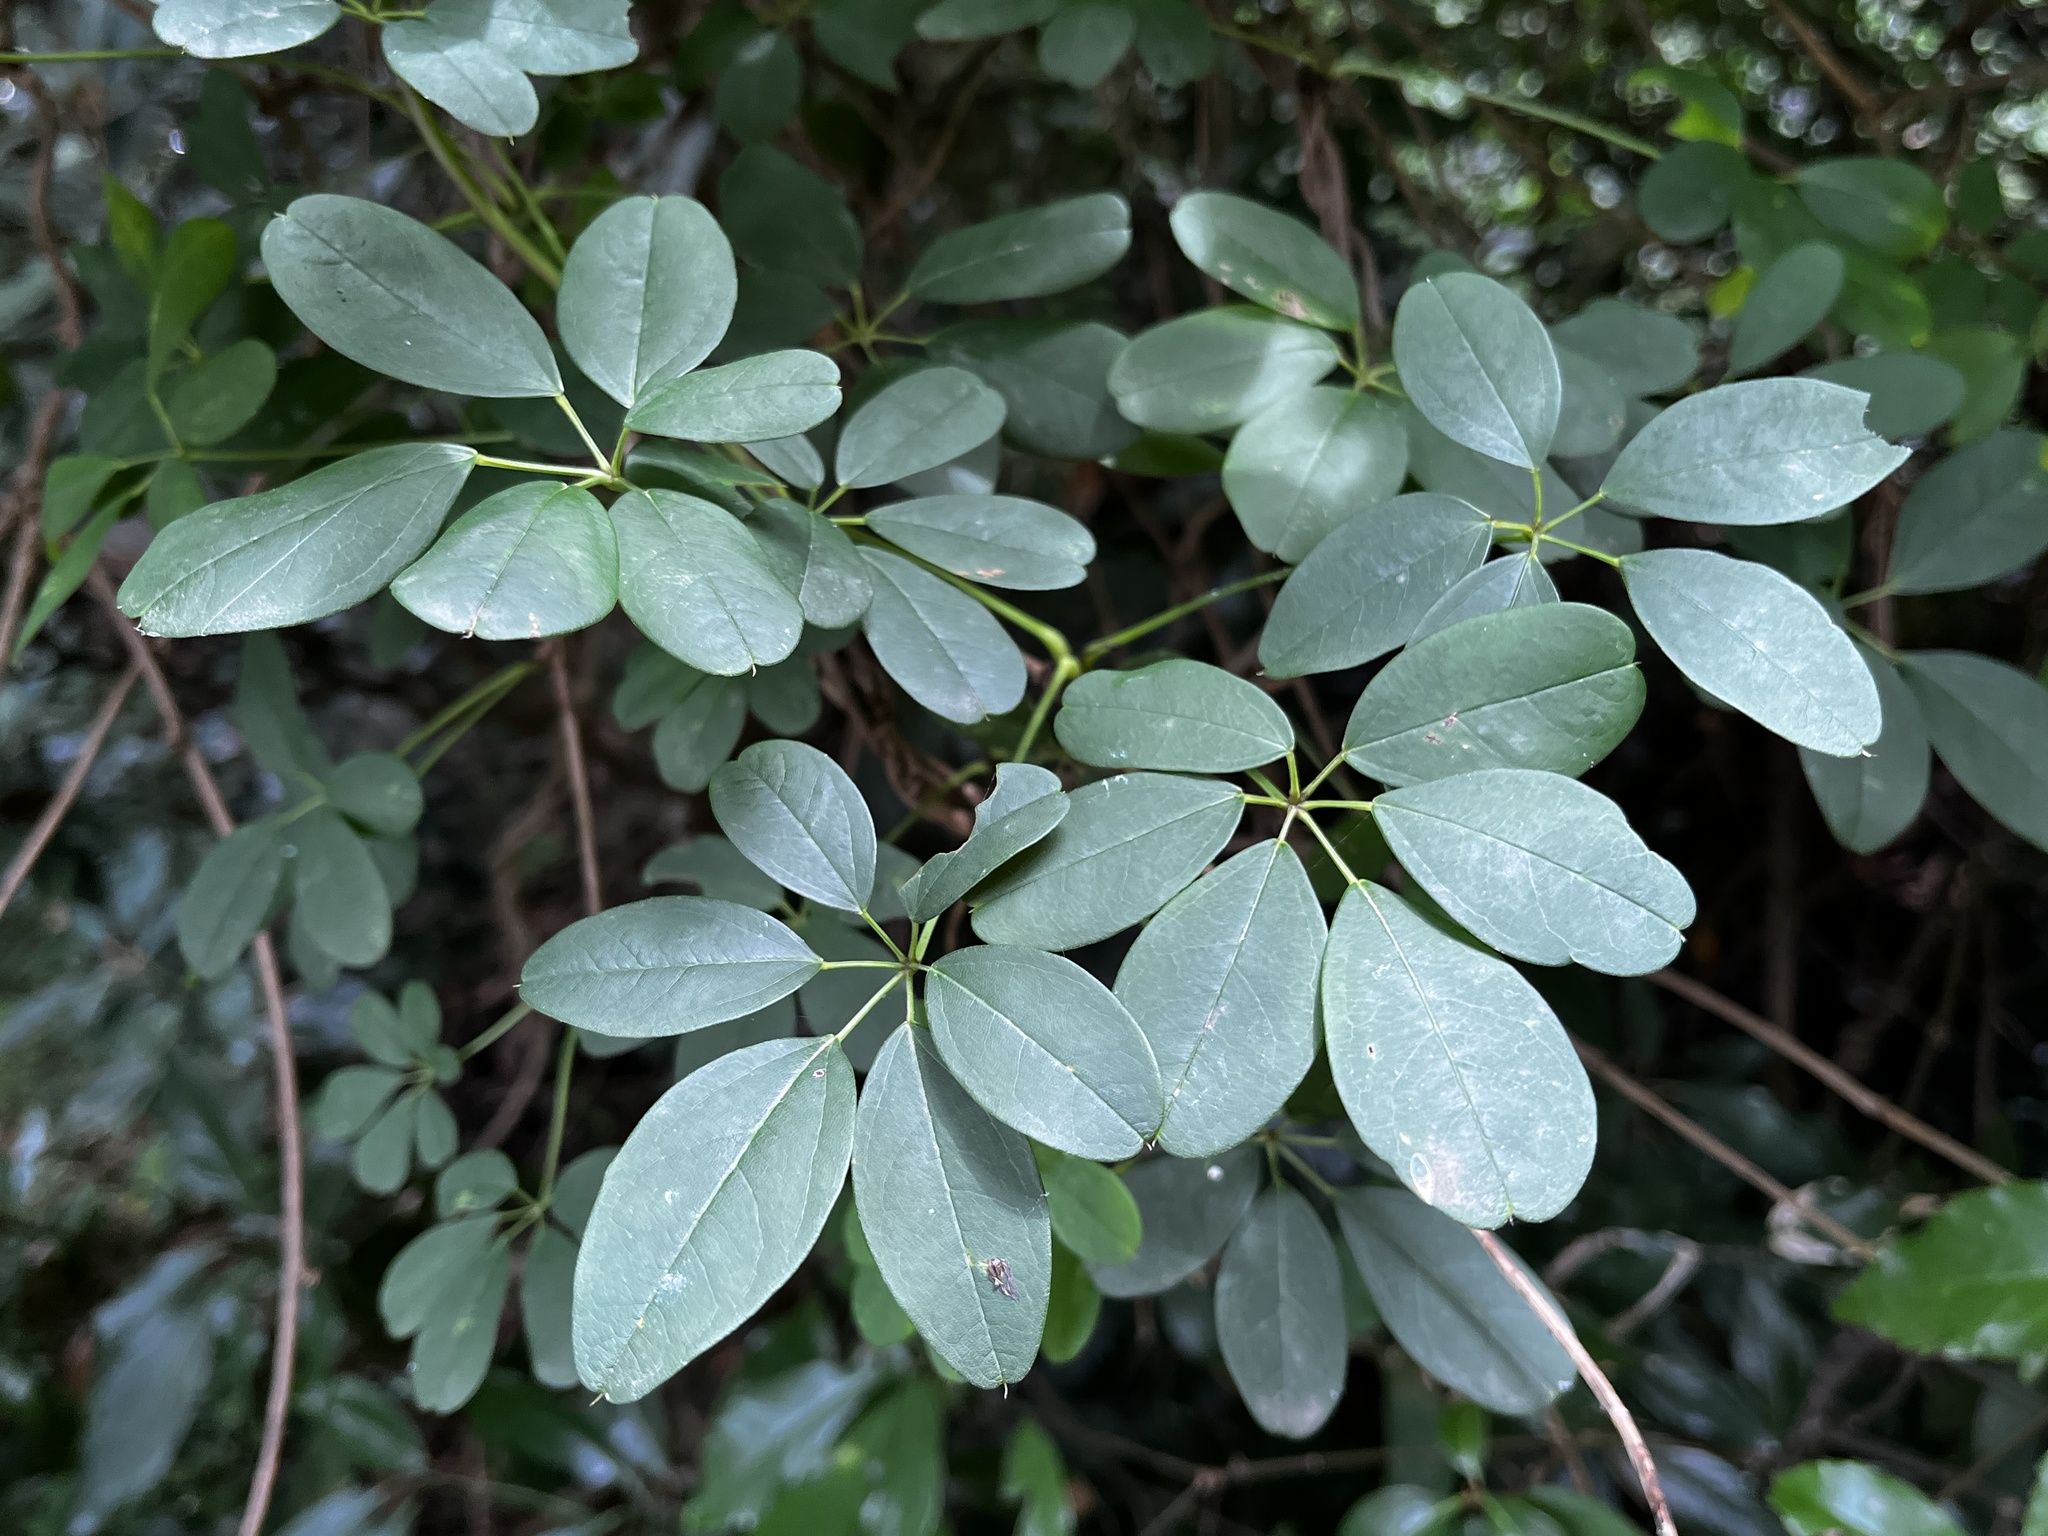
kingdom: Plantae
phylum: Tracheophyta
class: Magnoliopsida
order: Ranunculales
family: Lardizabalaceae
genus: Akebia
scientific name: Akebia quinata
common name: Five-leaf akebia
